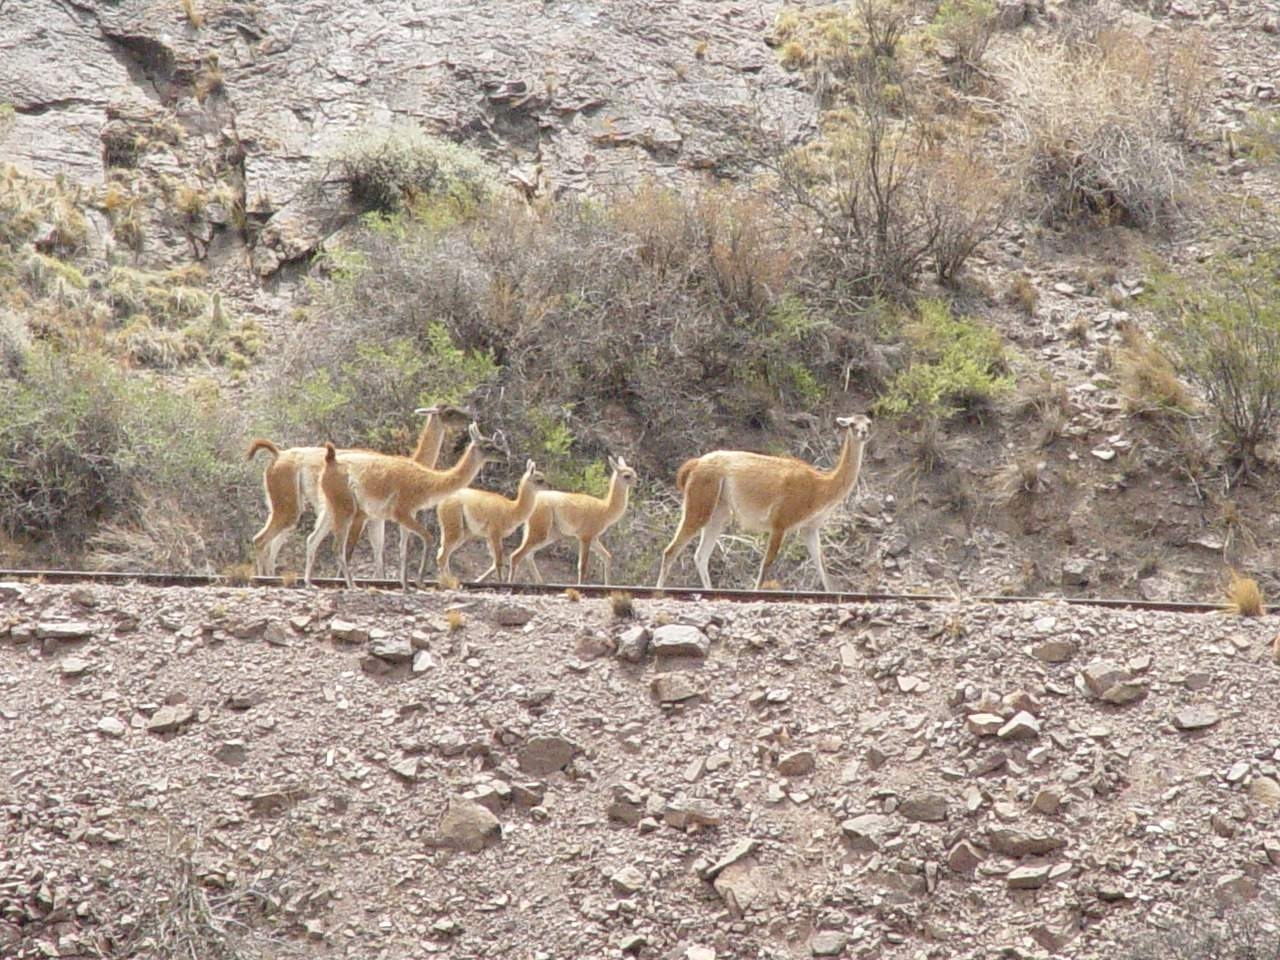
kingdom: Animalia
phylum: Chordata
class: Mammalia
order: Artiodactyla
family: Camelidae
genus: Lama
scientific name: Lama glama
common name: Llama
